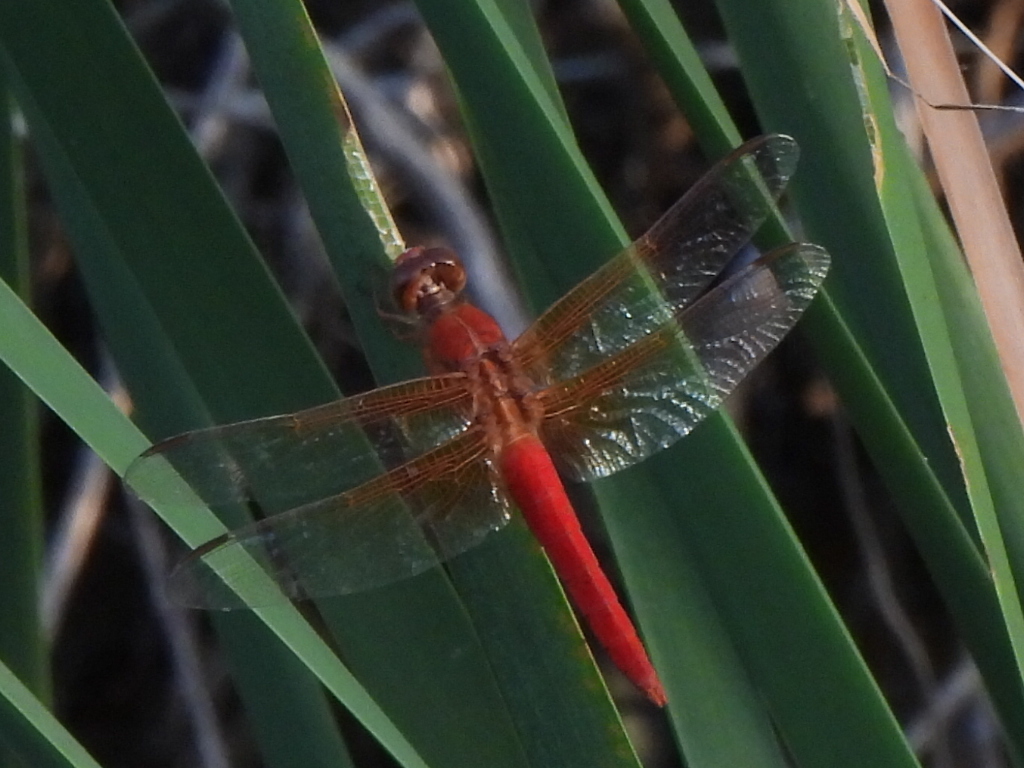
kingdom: Animalia
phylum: Arthropoda
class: Insecta
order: Odonata
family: Libellulidae
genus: Libellula
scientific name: Libellula croceipennis
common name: Neon skimmer
